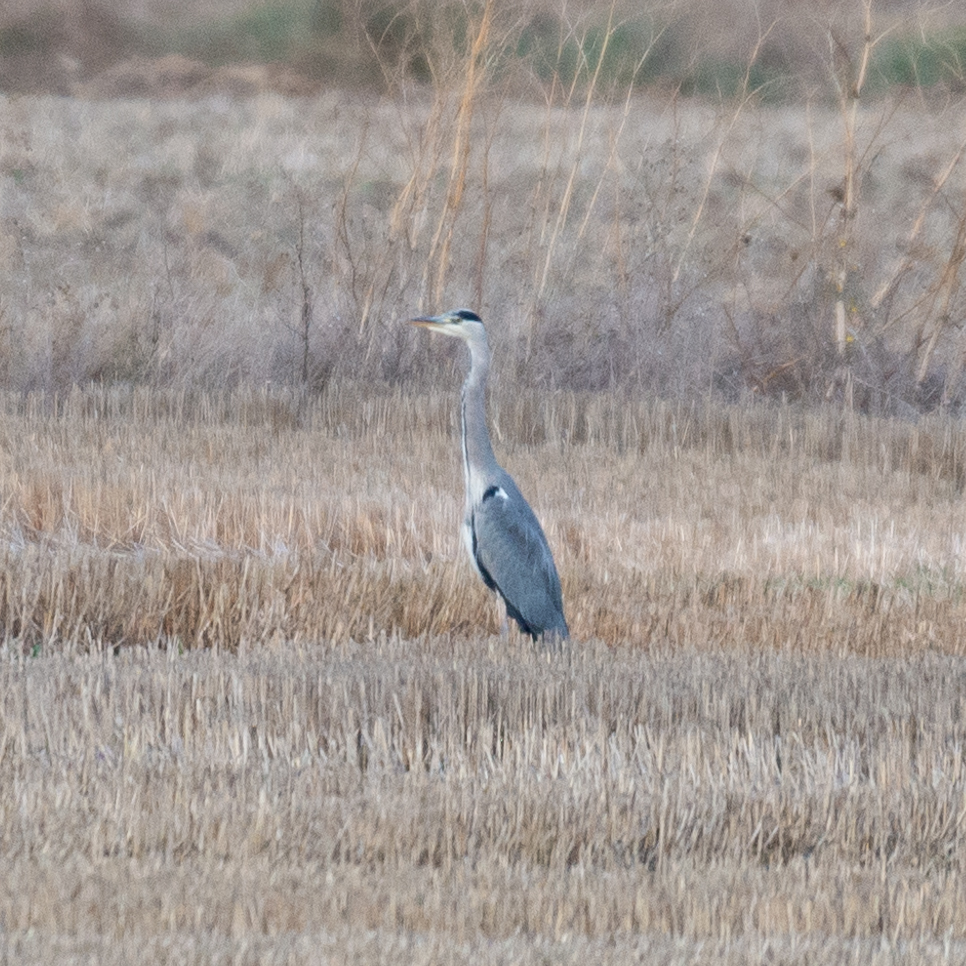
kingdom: Animalia
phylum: Chordata
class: Aves
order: Pelecaniformes
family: Ardeidae
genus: Ardea
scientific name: Ardea cinerea
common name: Grey heron
